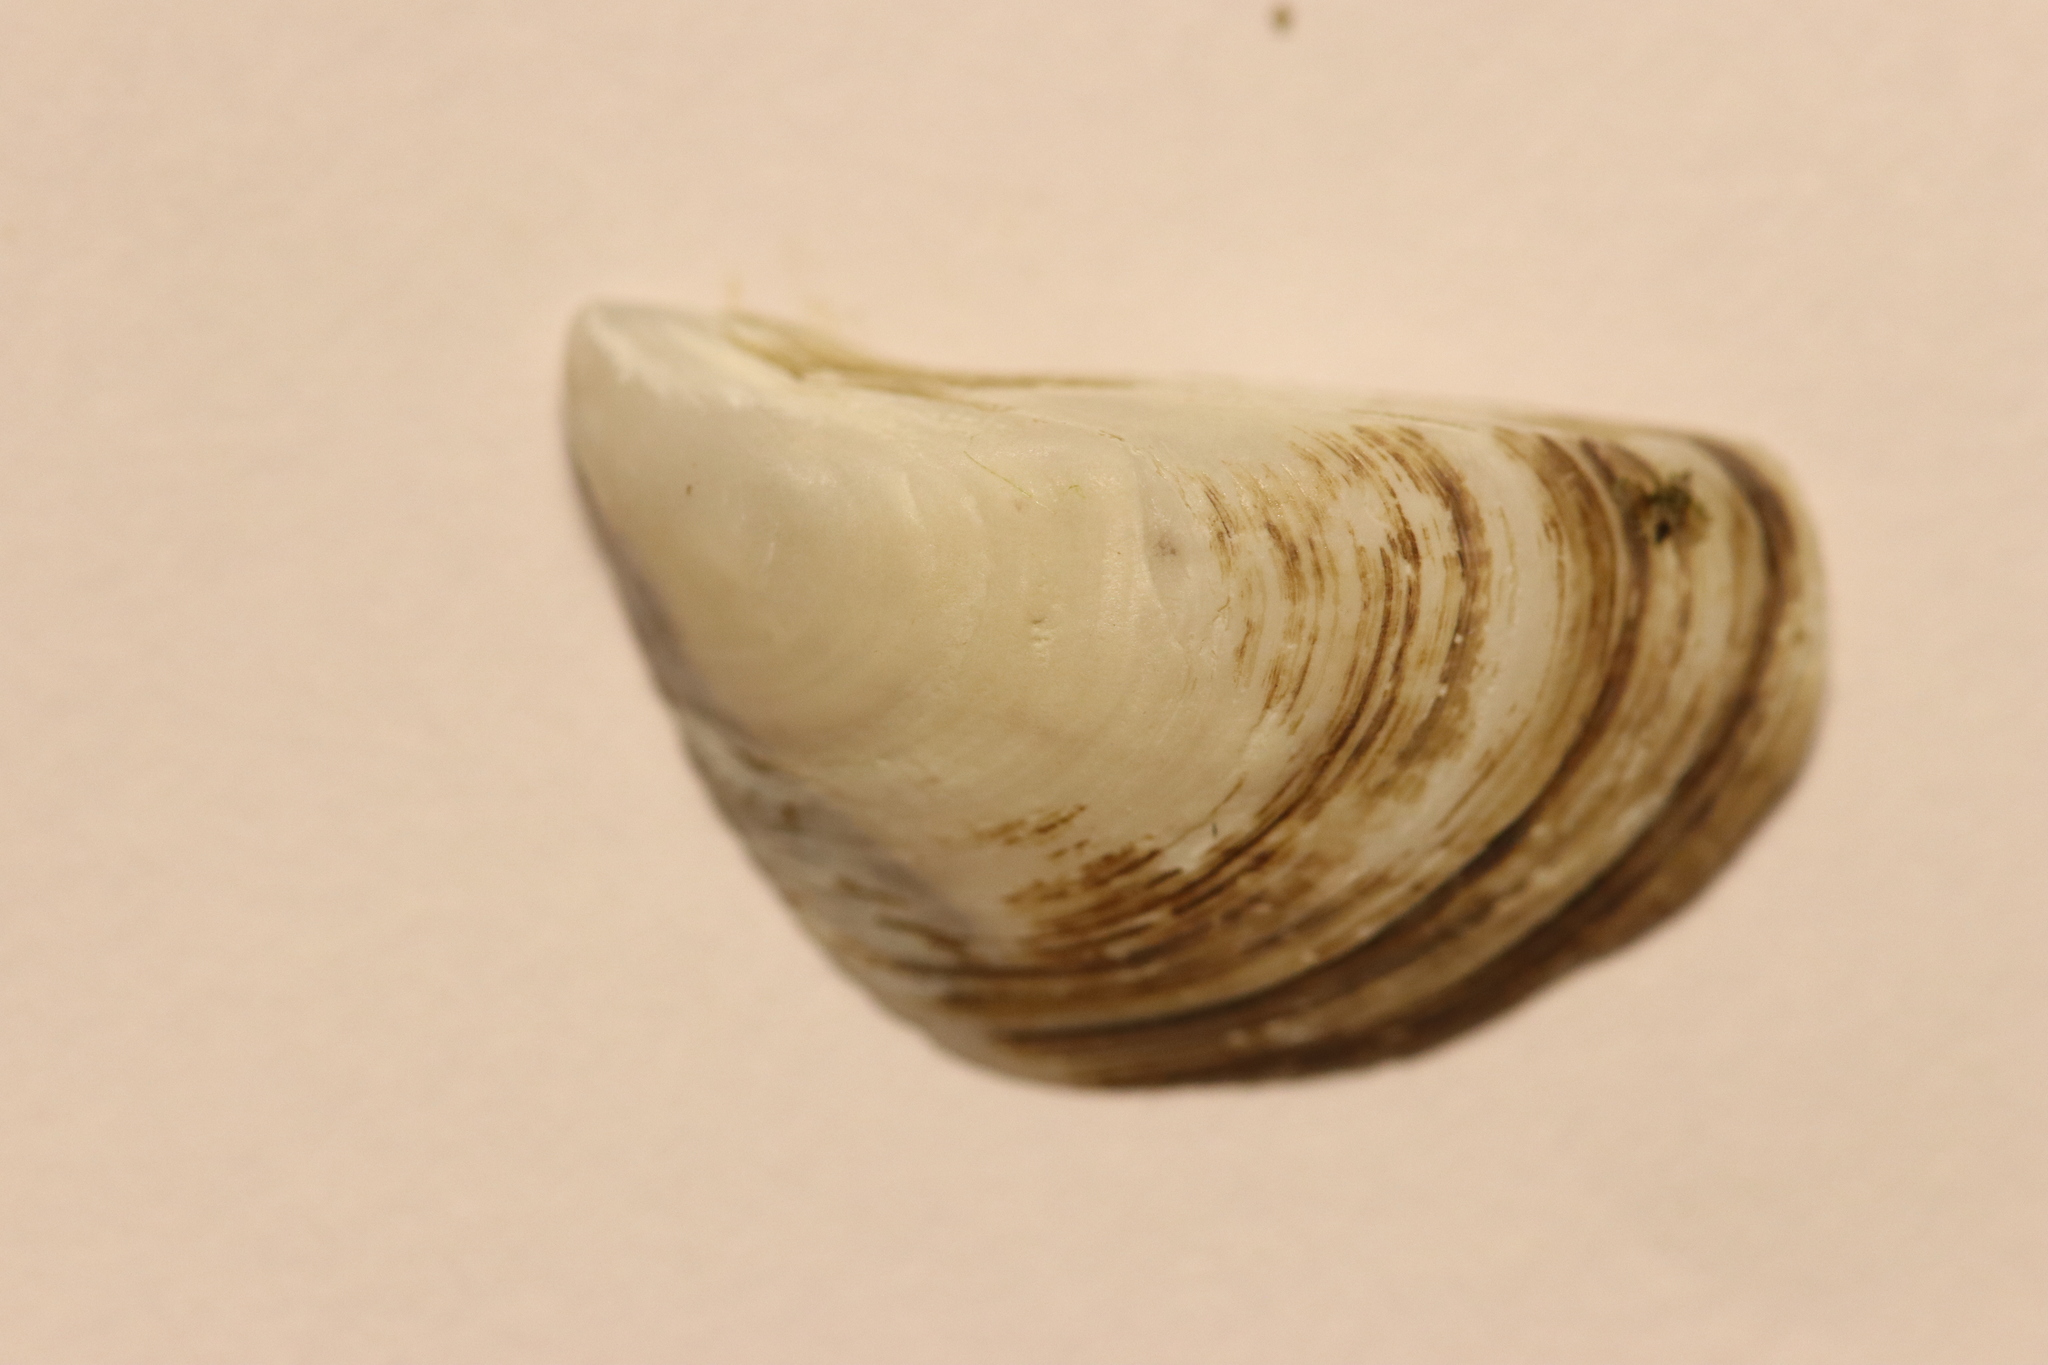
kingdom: Animalia
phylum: Mollusca
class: Bivalvia
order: Myida
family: Dreissenidae
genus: Dreissena
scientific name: Dreissena polymorpha
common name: Zebra mussel
